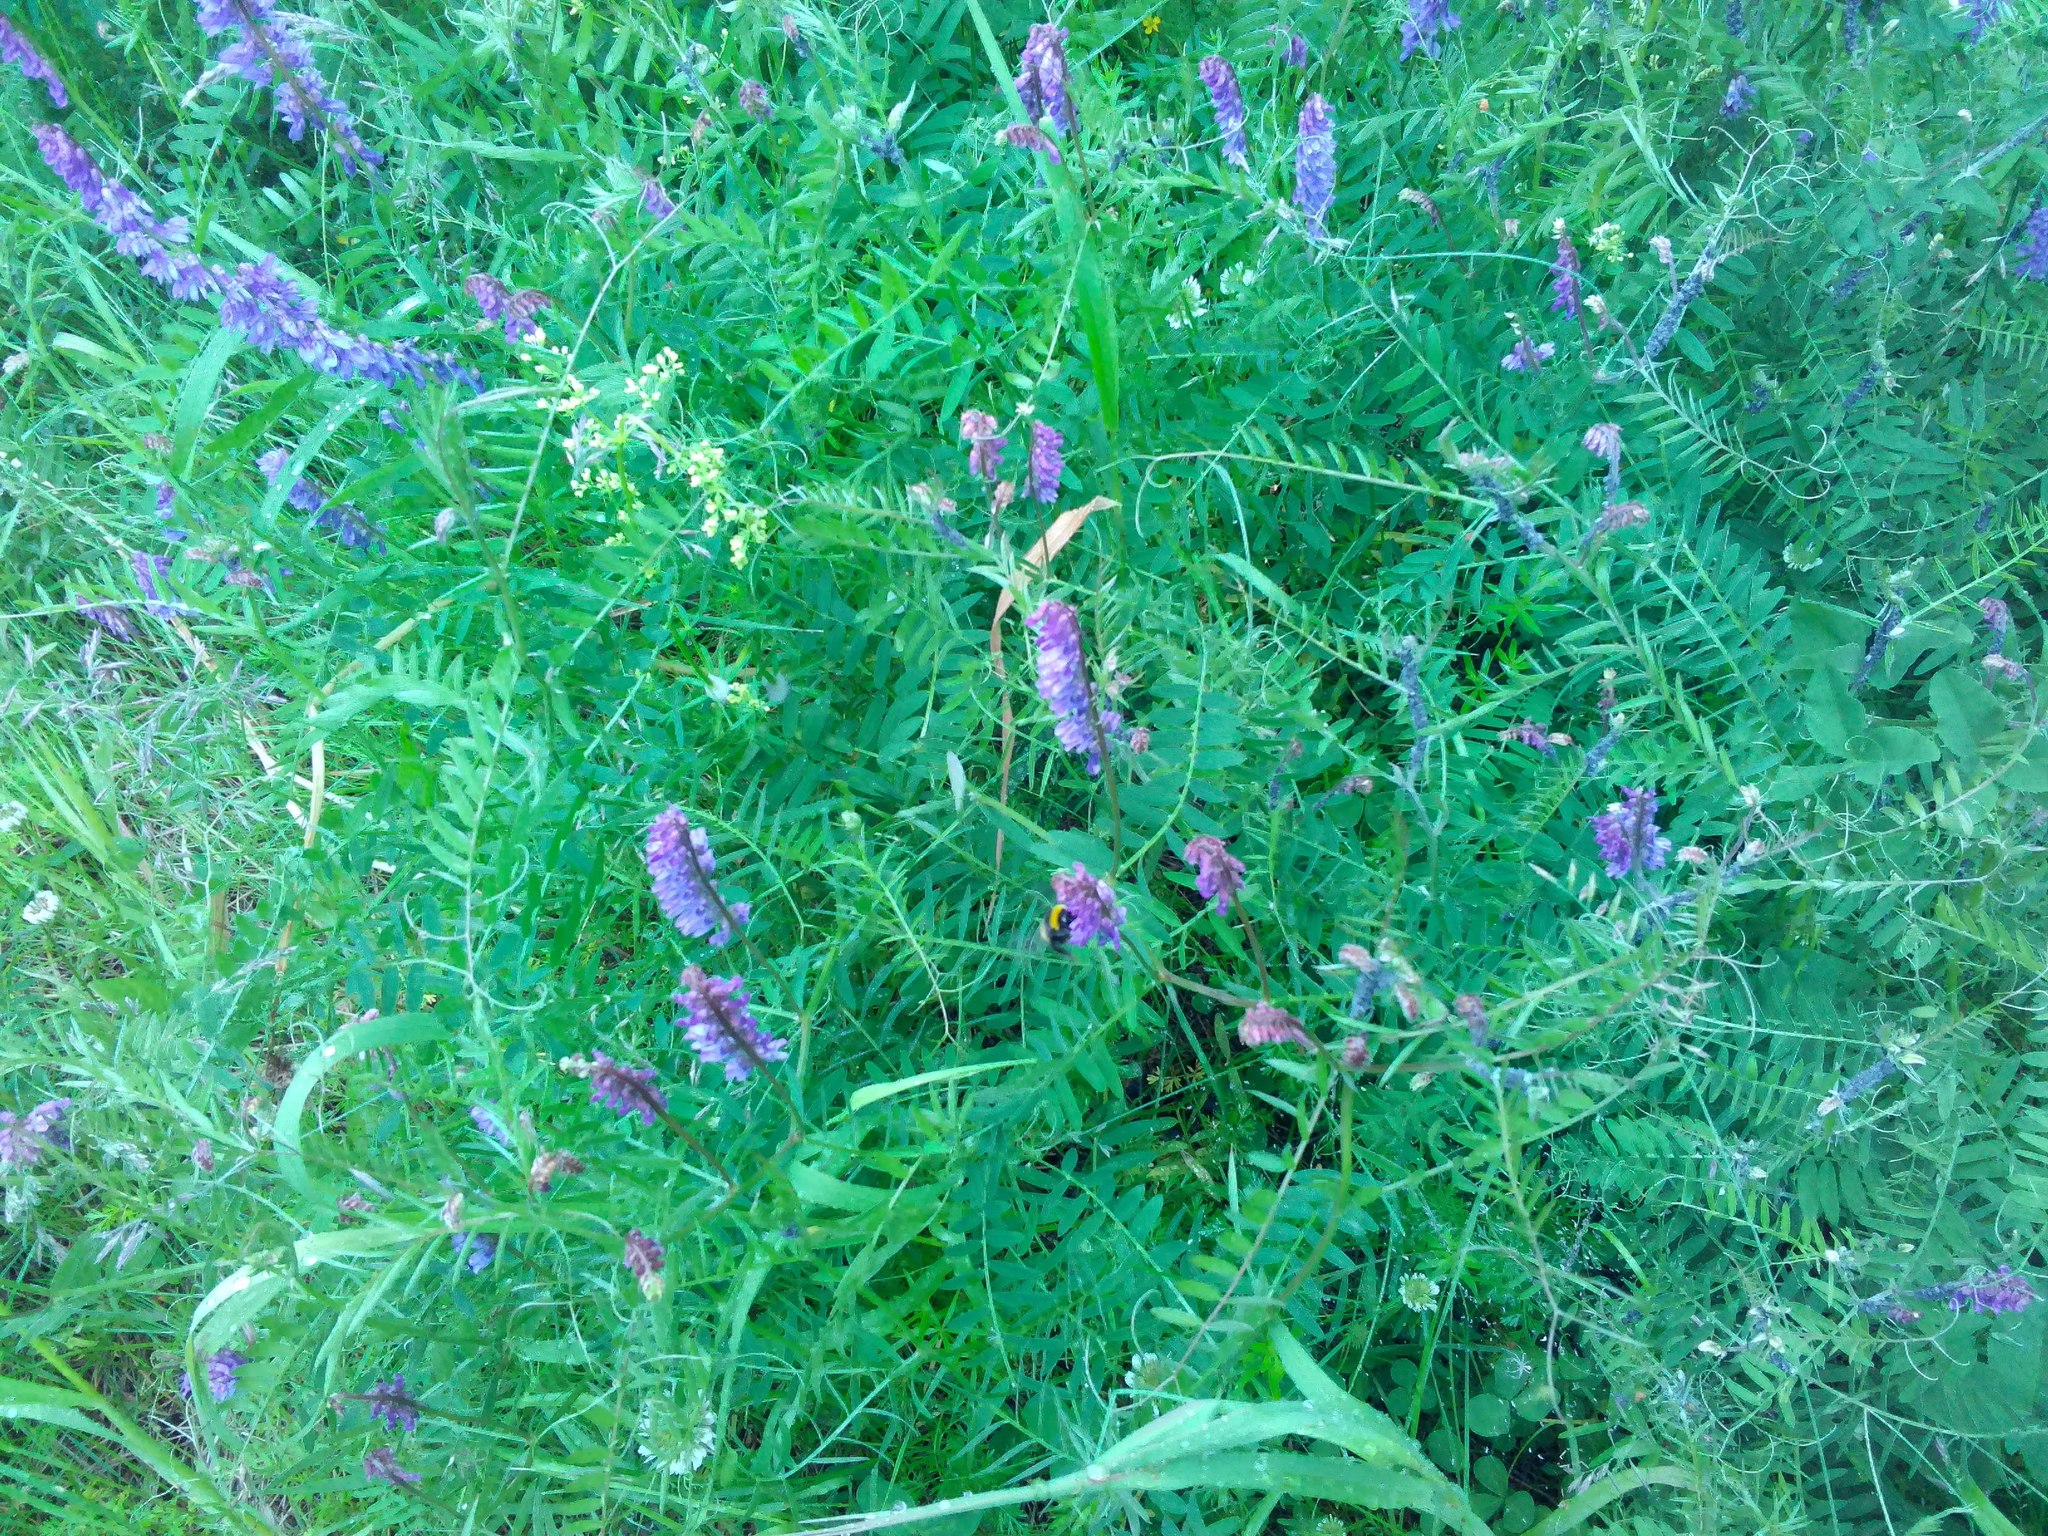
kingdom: Plantae
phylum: Tracheophyta
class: Magnoliopsida
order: Fabales
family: Fabaceae
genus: Vicia
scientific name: Vicia cracca
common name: Bird vetch
